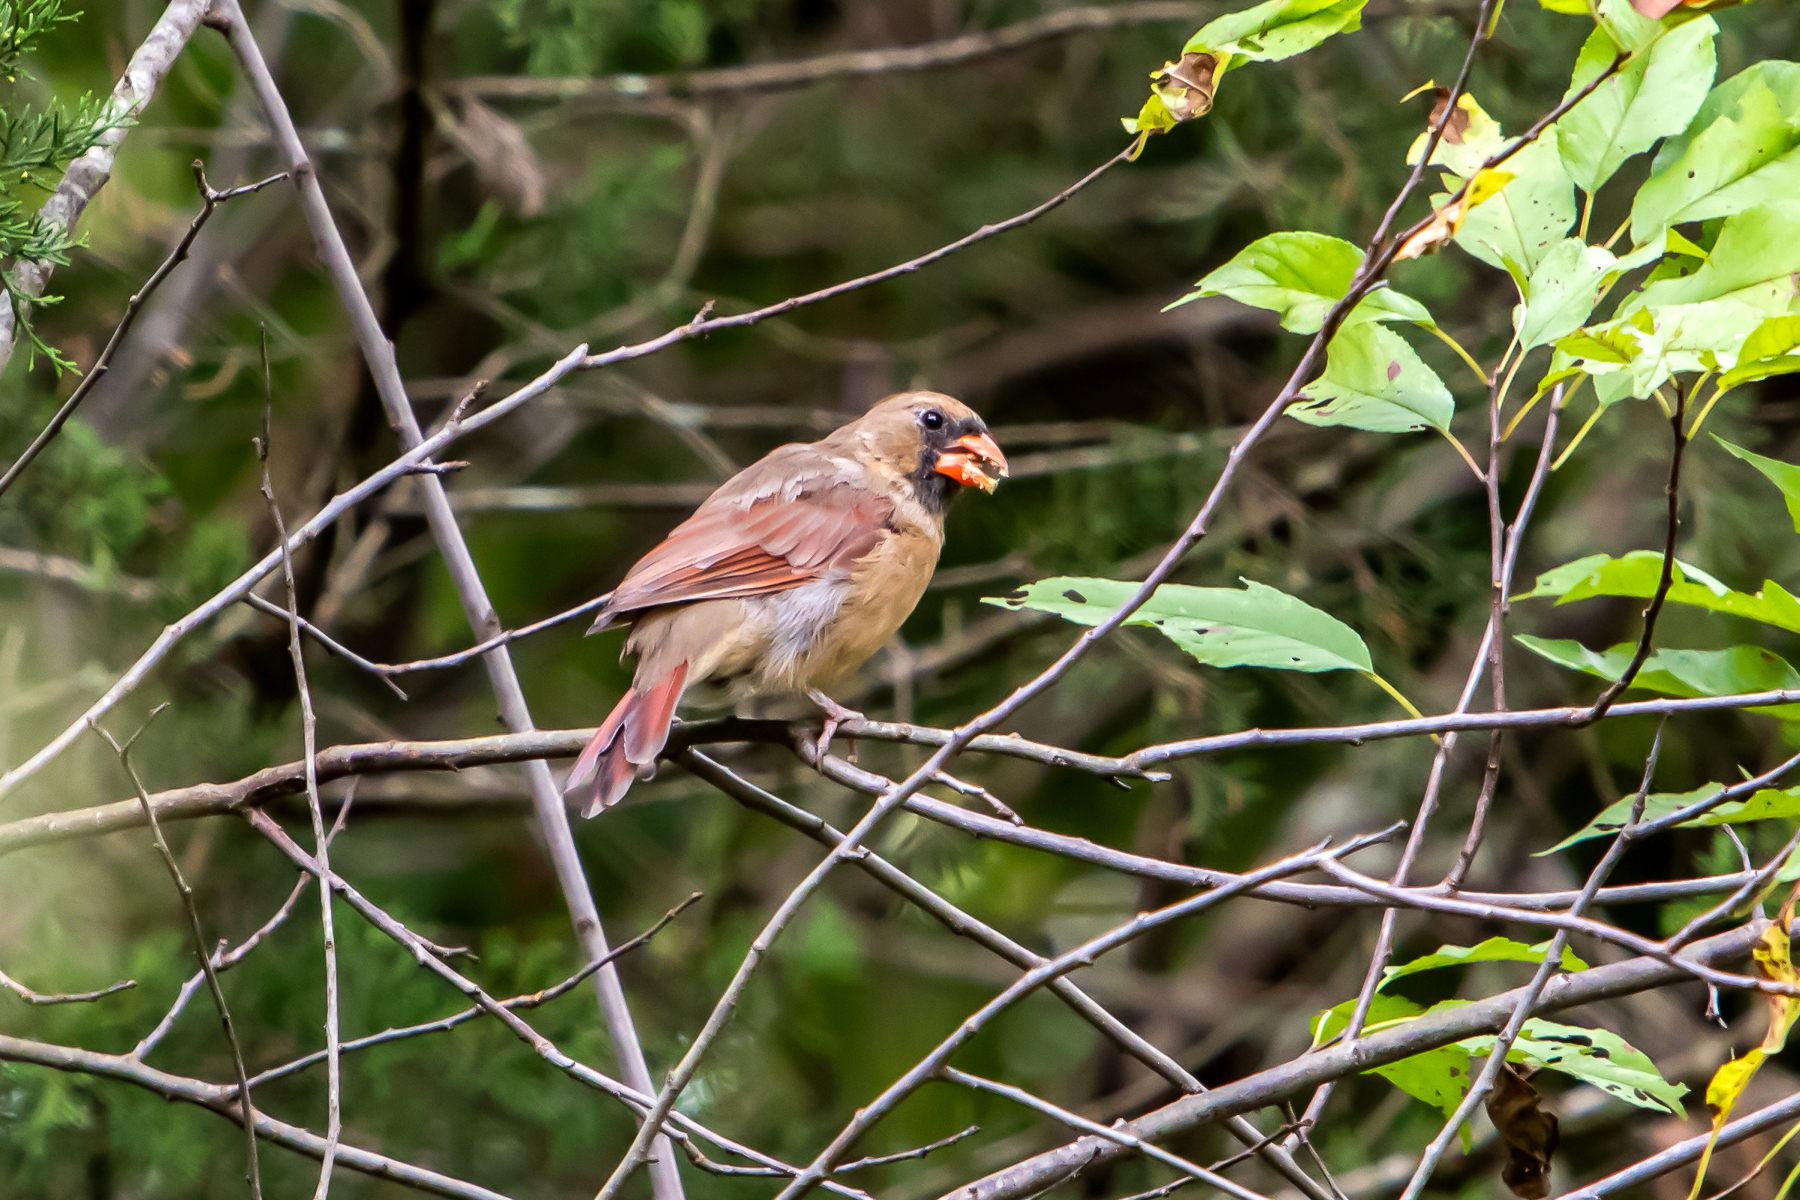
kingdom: Animalia
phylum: Chordata
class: Aves
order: Passeriformes
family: Cardinalidae
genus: Cardinalis
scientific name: Cardinalis cardinalis
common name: Northern cardinal
